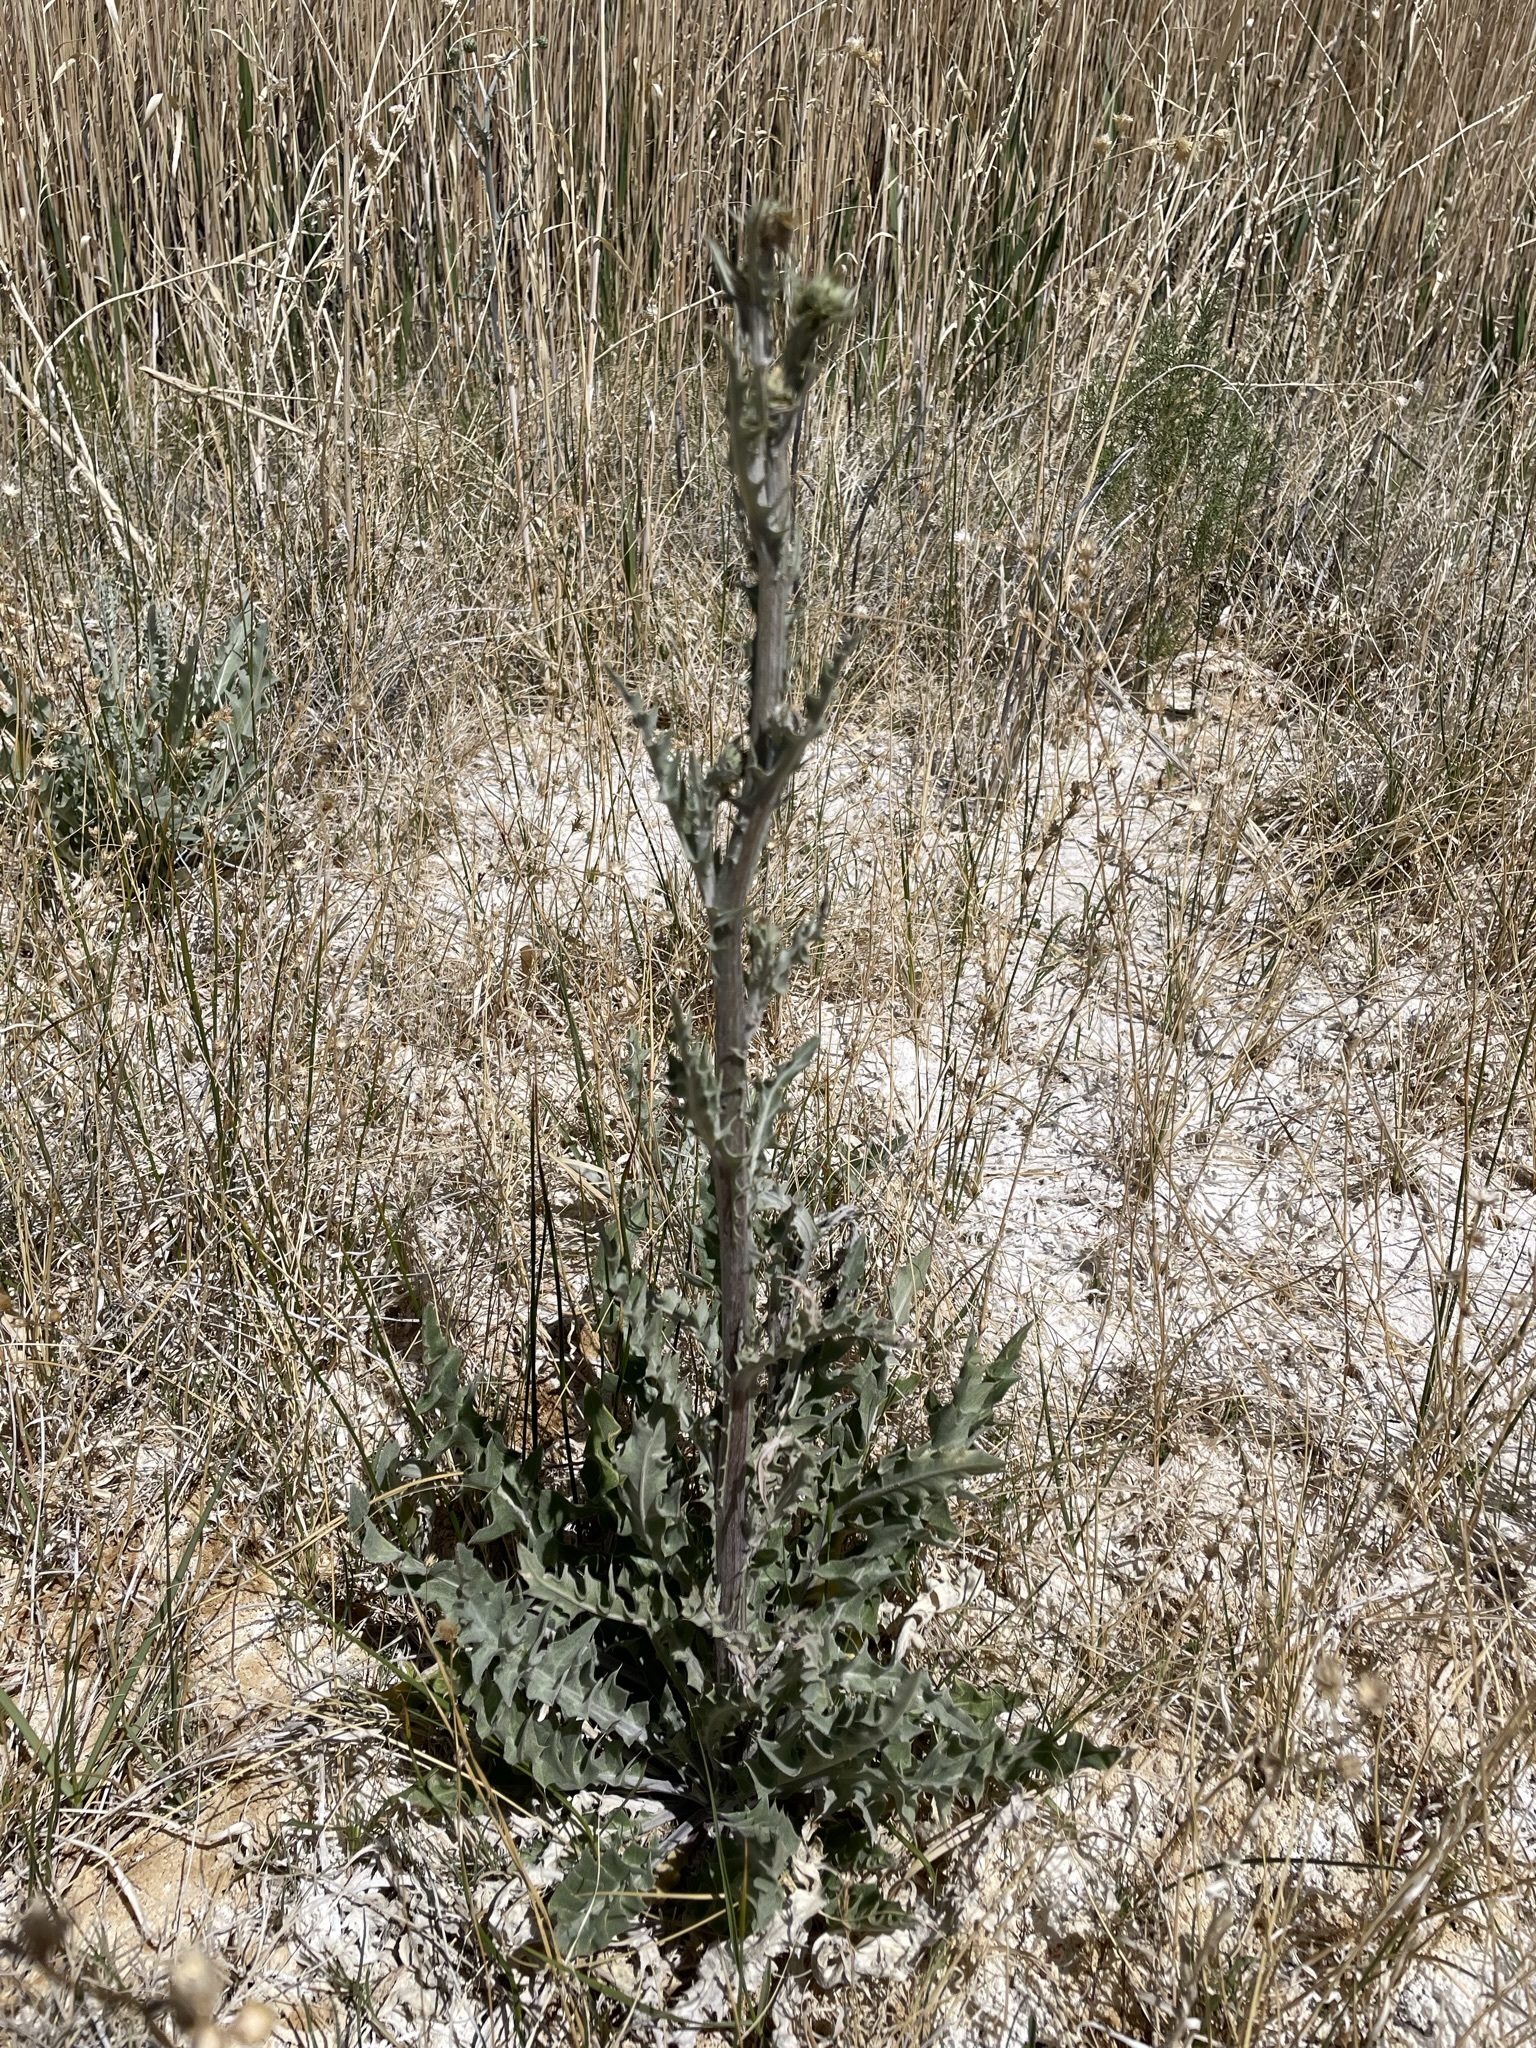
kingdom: Plantae
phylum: Tracheophyta
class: Magnoliopsida
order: Asterales
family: Asteraceae
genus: Cirsium
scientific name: Cirsium mohavense
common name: Mojave thistle
